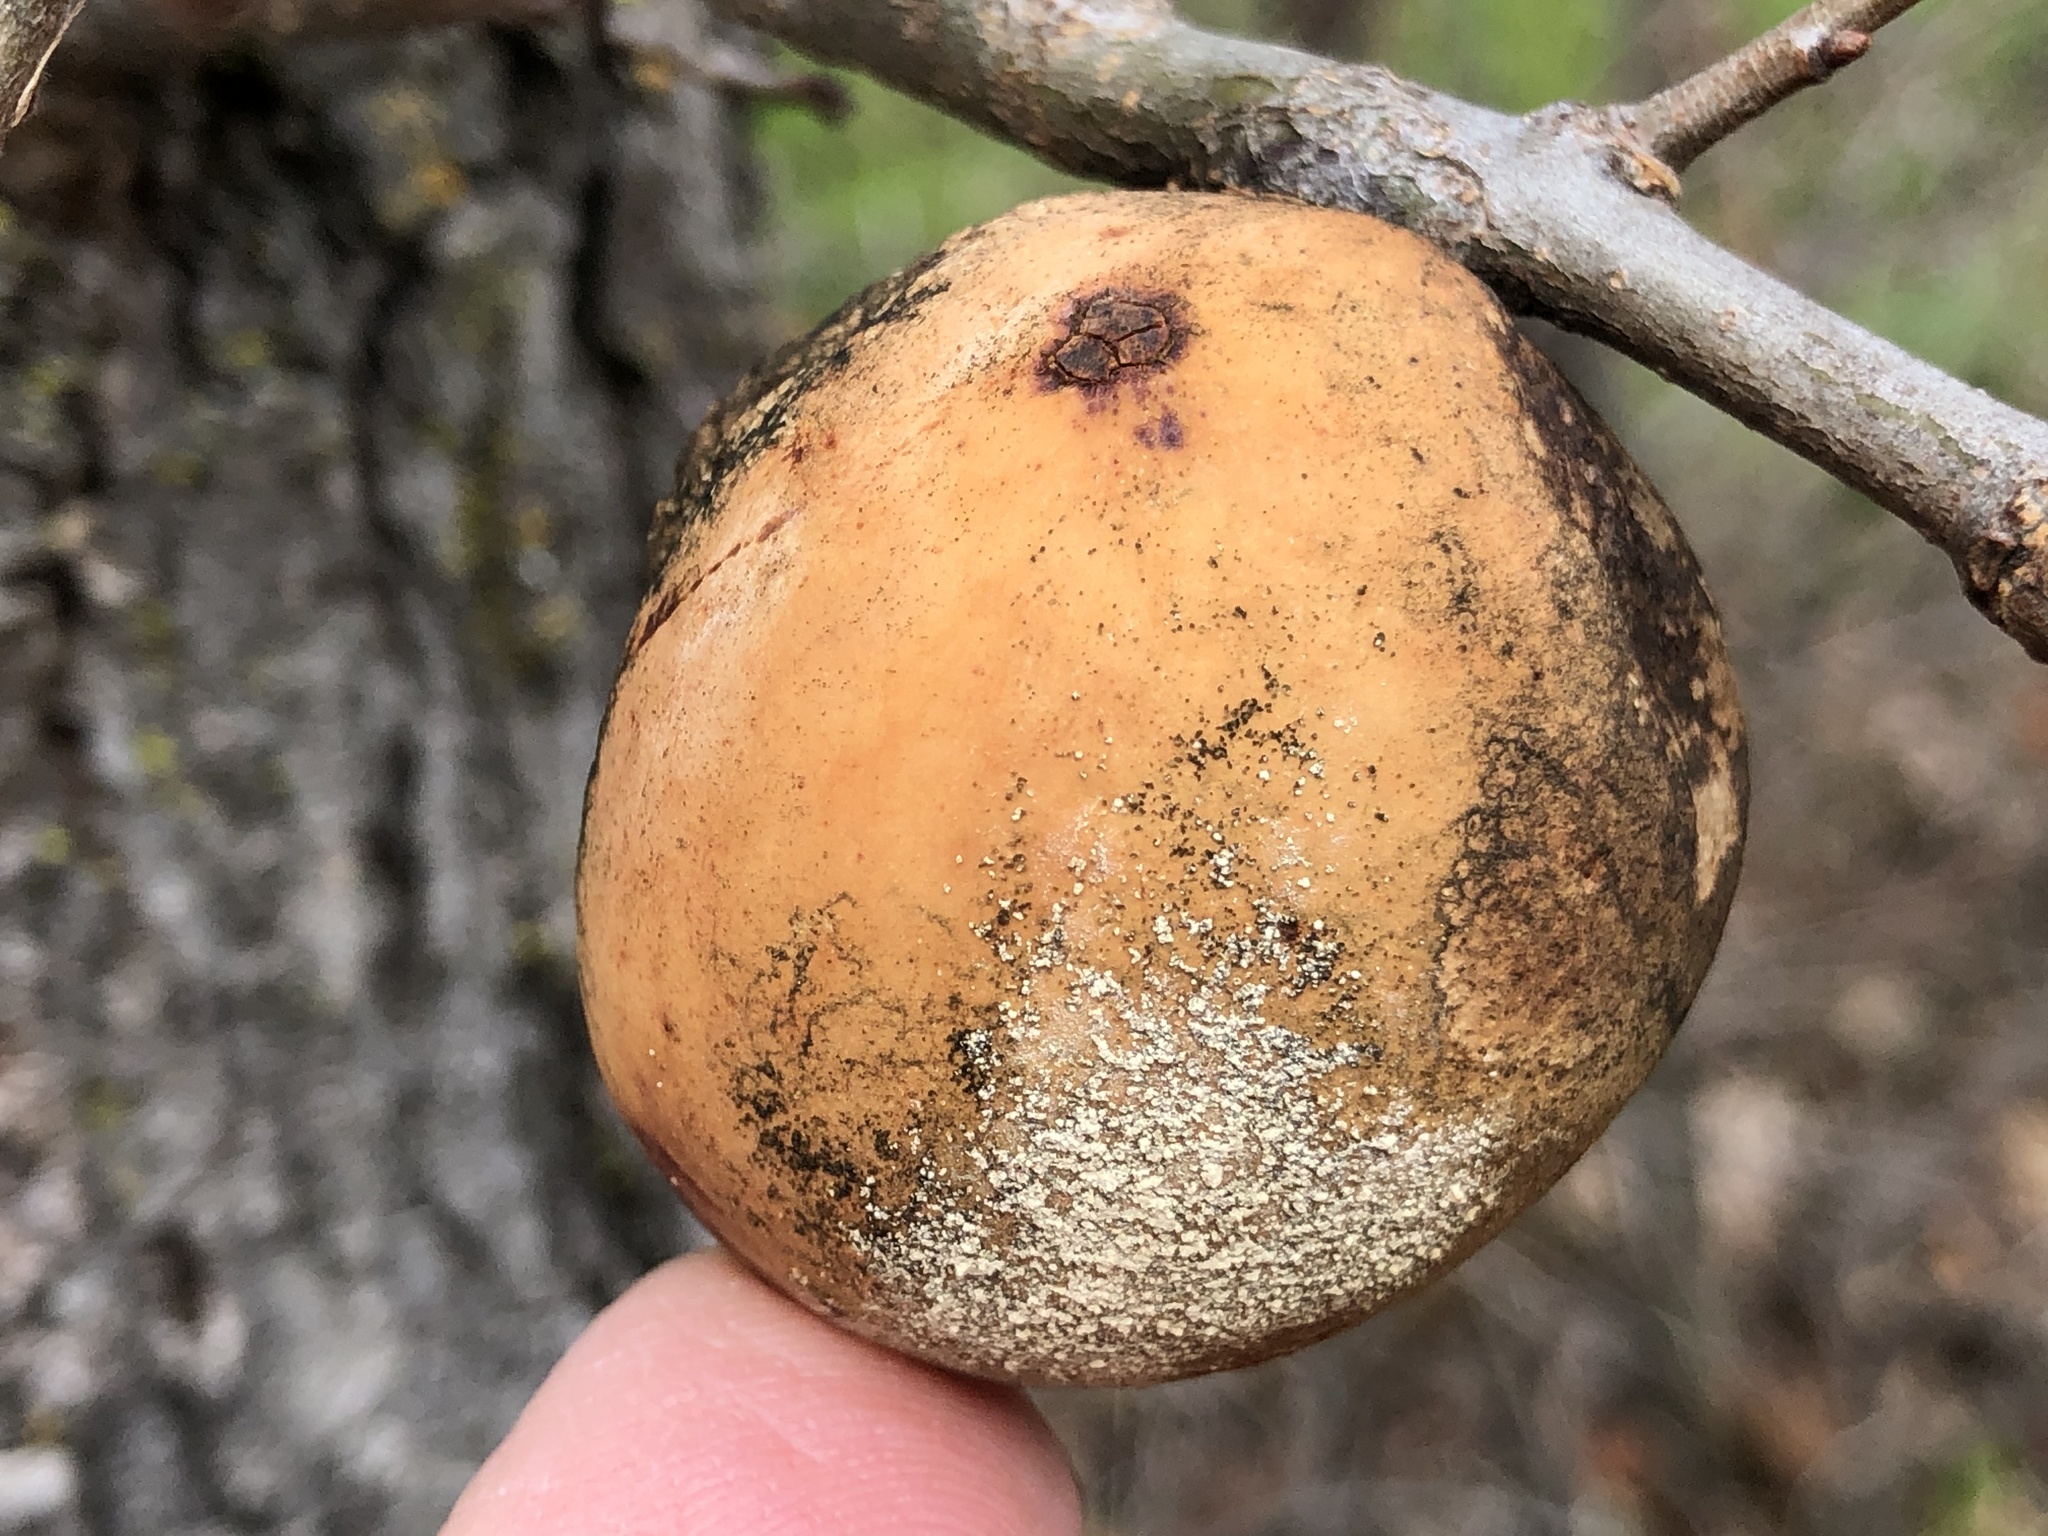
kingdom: Animalia
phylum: Arthropoda
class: Insecta
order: Hymenoptera
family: Cynipidae
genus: Andricus
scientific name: Andricus quercuscalifornicus
